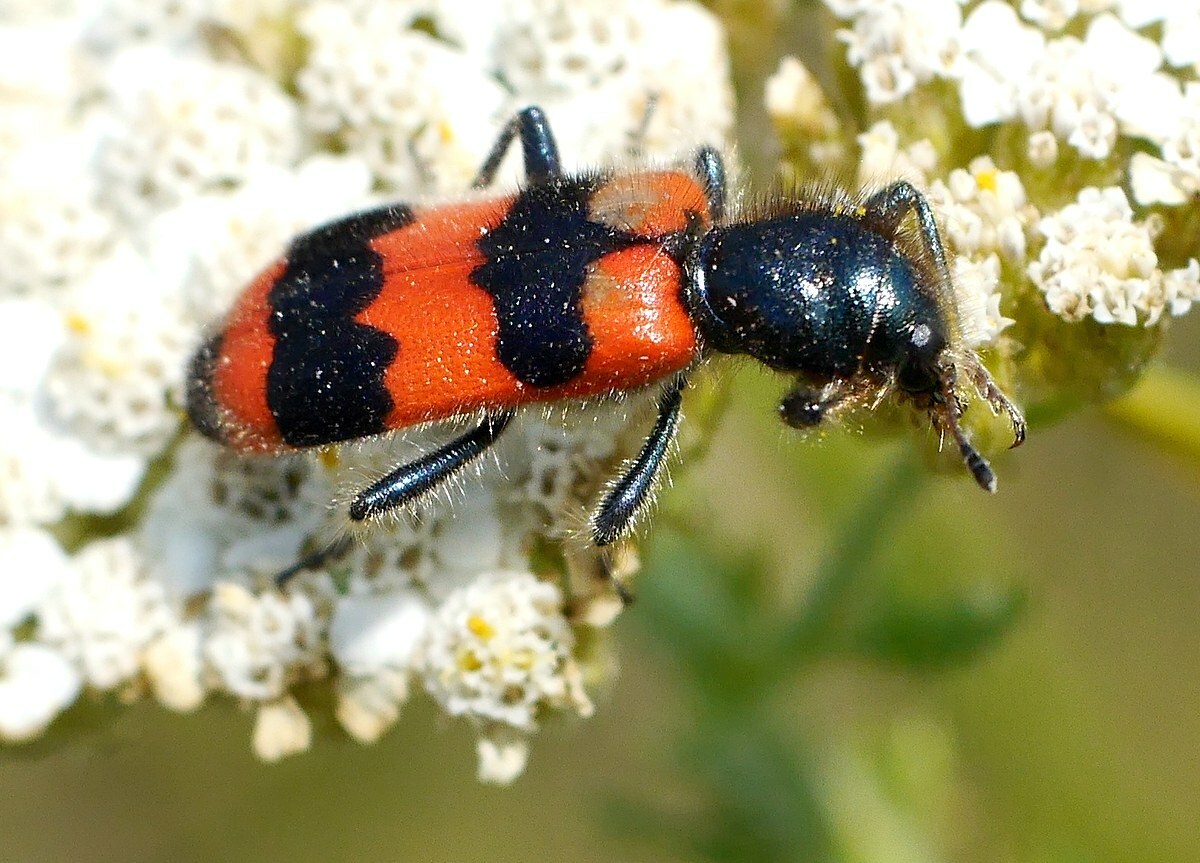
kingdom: Animalia
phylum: Arthropoda
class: Insecta
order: Coleoptera
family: Cleridae
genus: Trichodes
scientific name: Trichodes apiarius
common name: Bee-eating beetle
